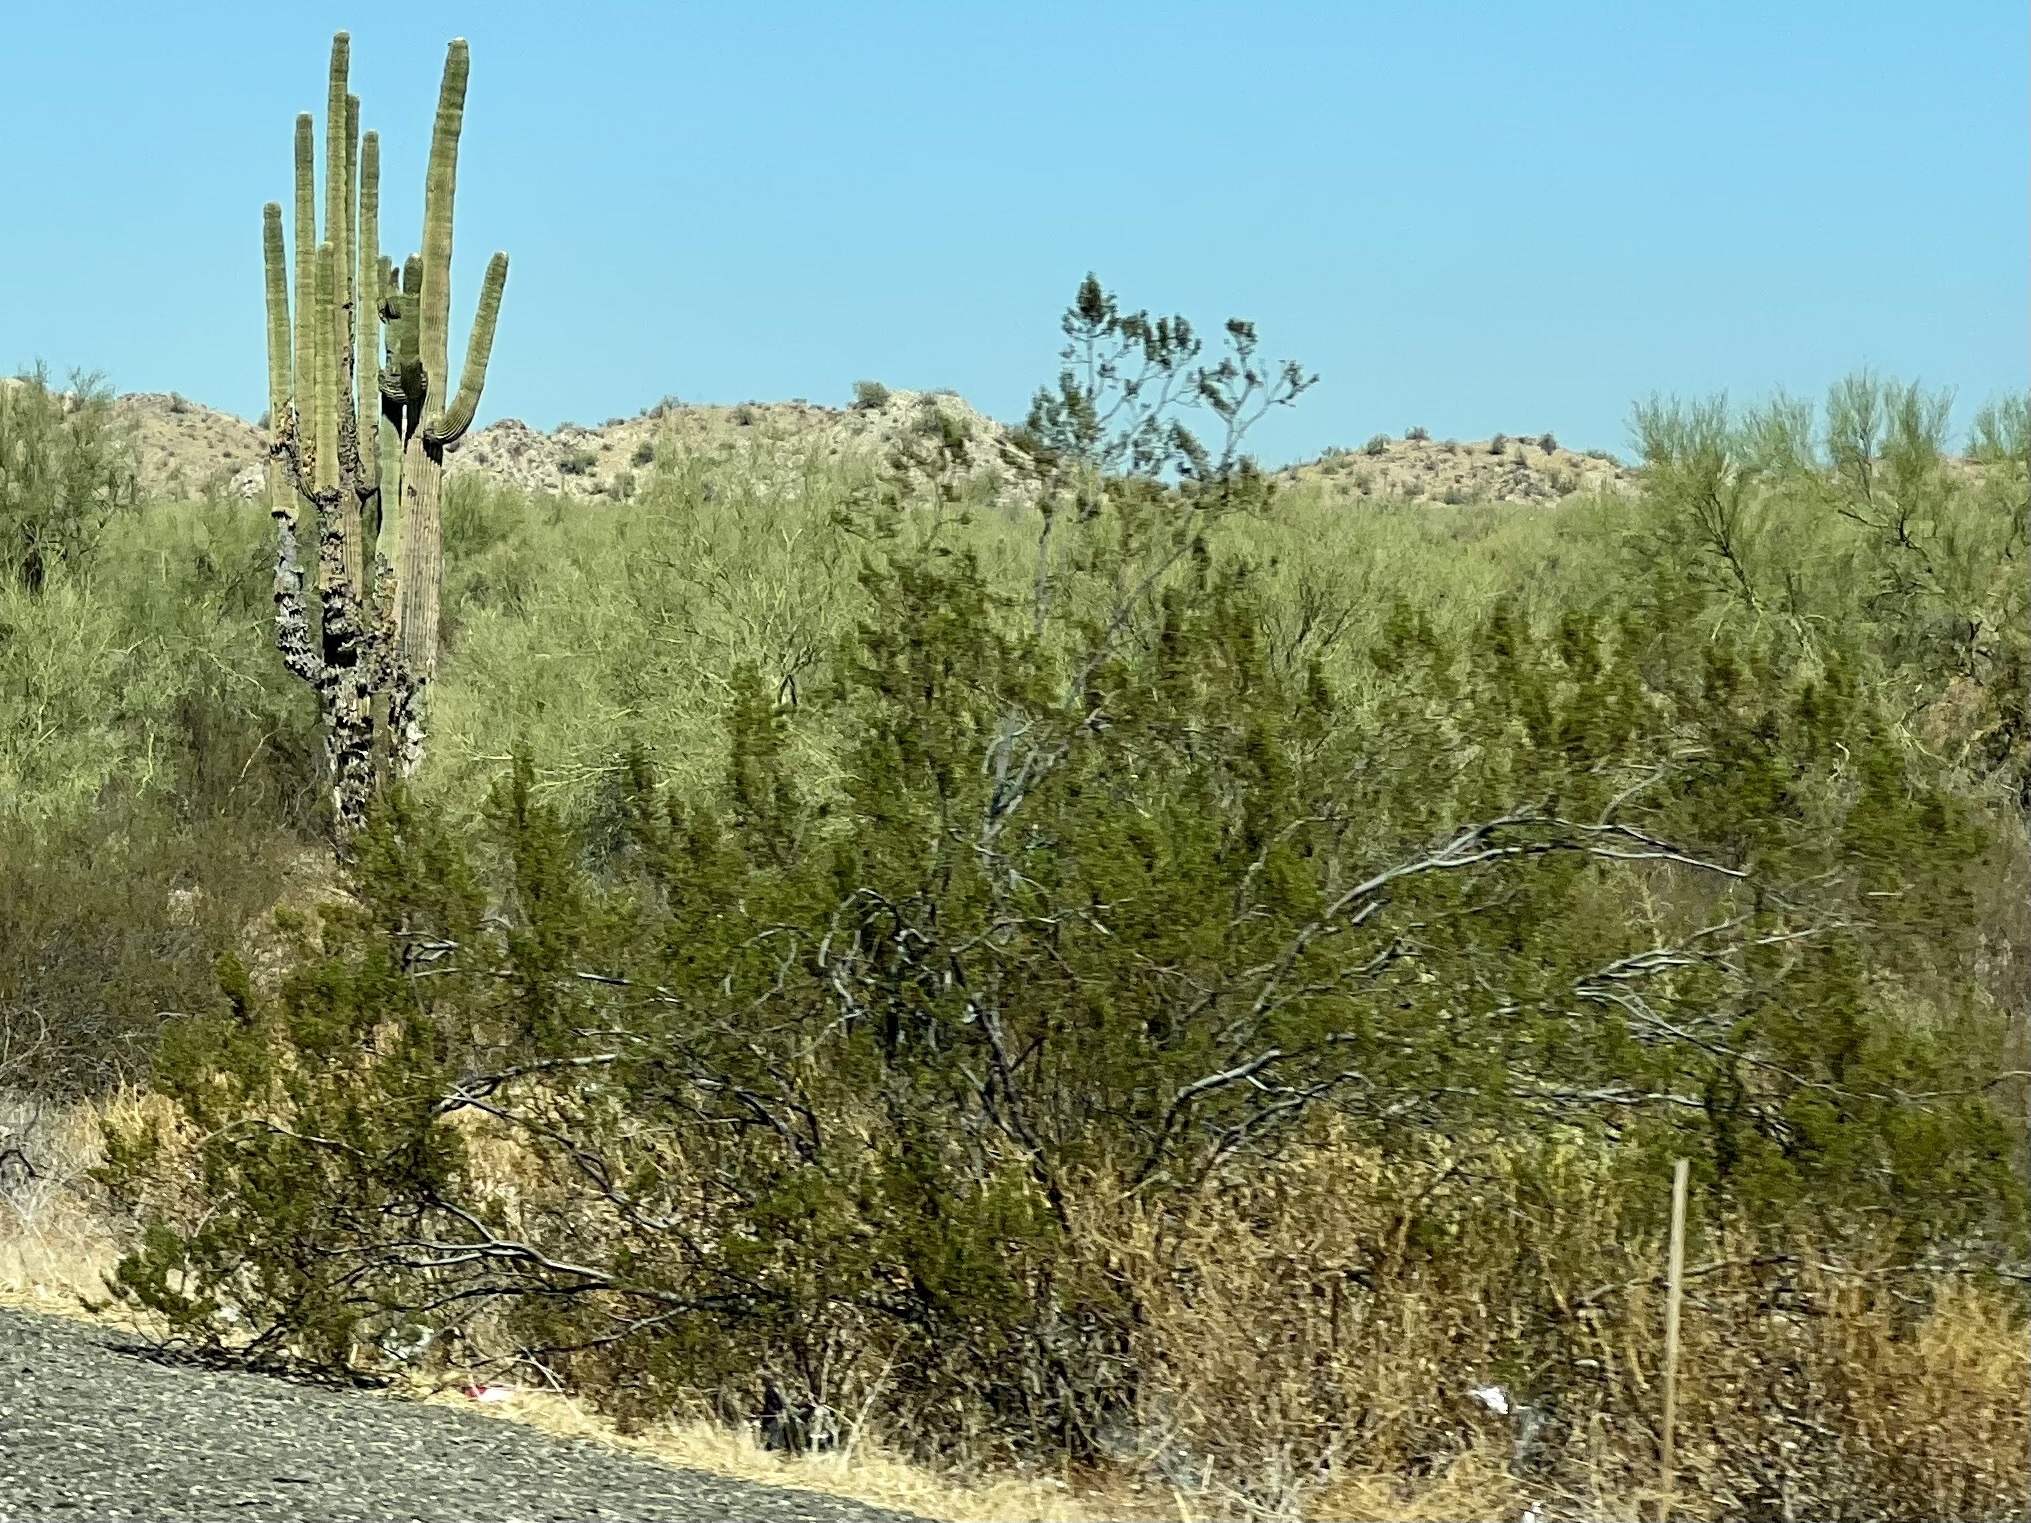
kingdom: Plantae
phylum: Tracheophyta
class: Magnoliopsida
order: Zygophyllales
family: Zygophyllaceae
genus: Larrea
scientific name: Larrea tridentata
